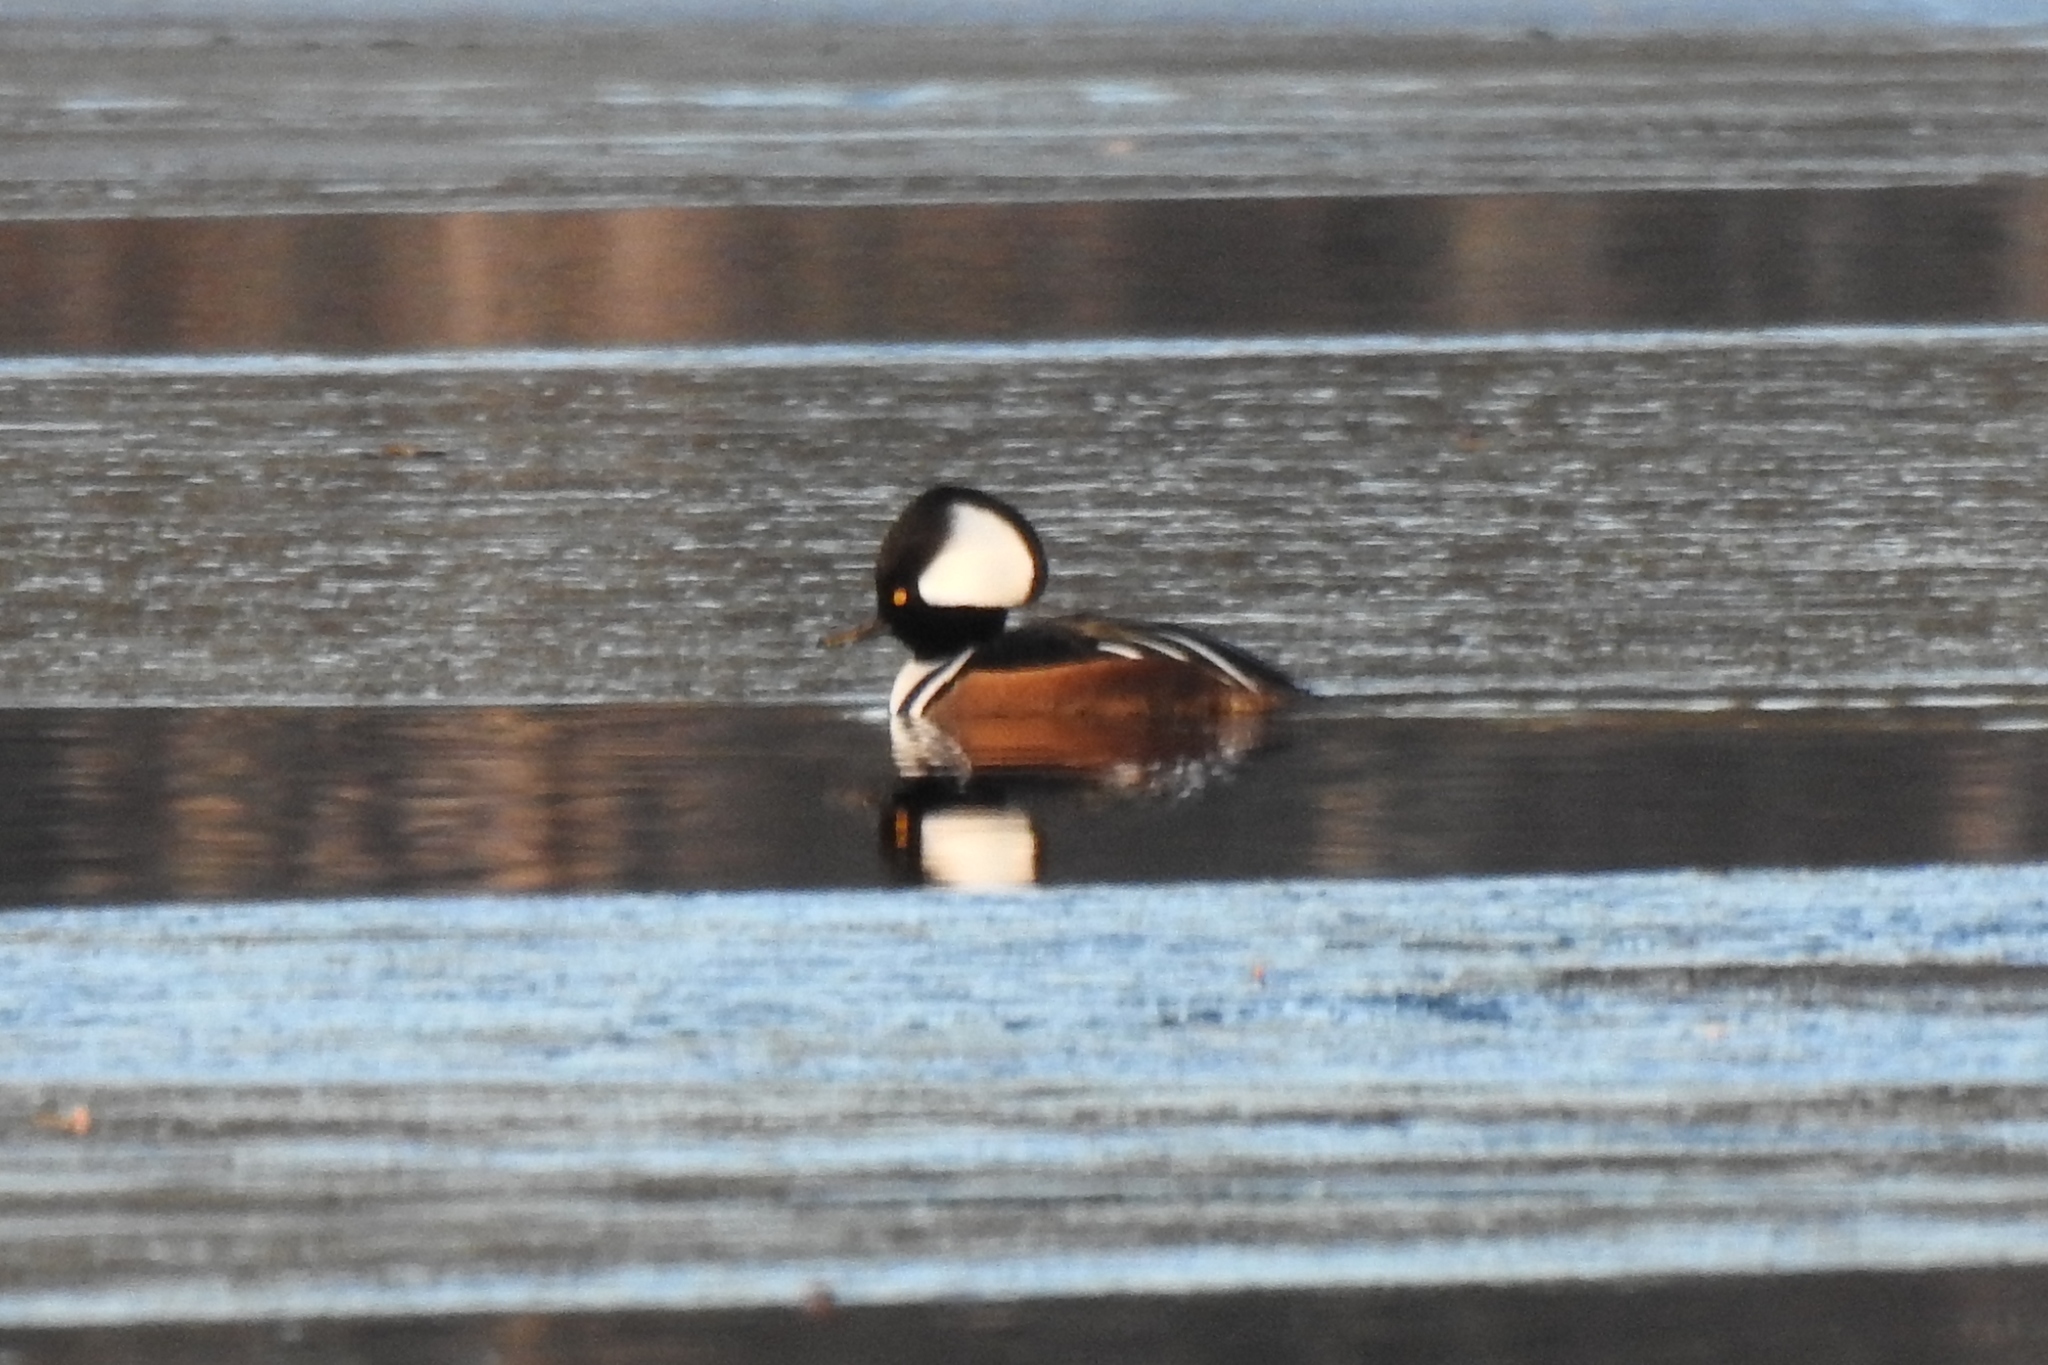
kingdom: Animalia
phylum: Chordata
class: Aves
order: Anseriformes
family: Anatidae
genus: Lophodytes
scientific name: Lophodytes cucullatus
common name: Hooded merganser
